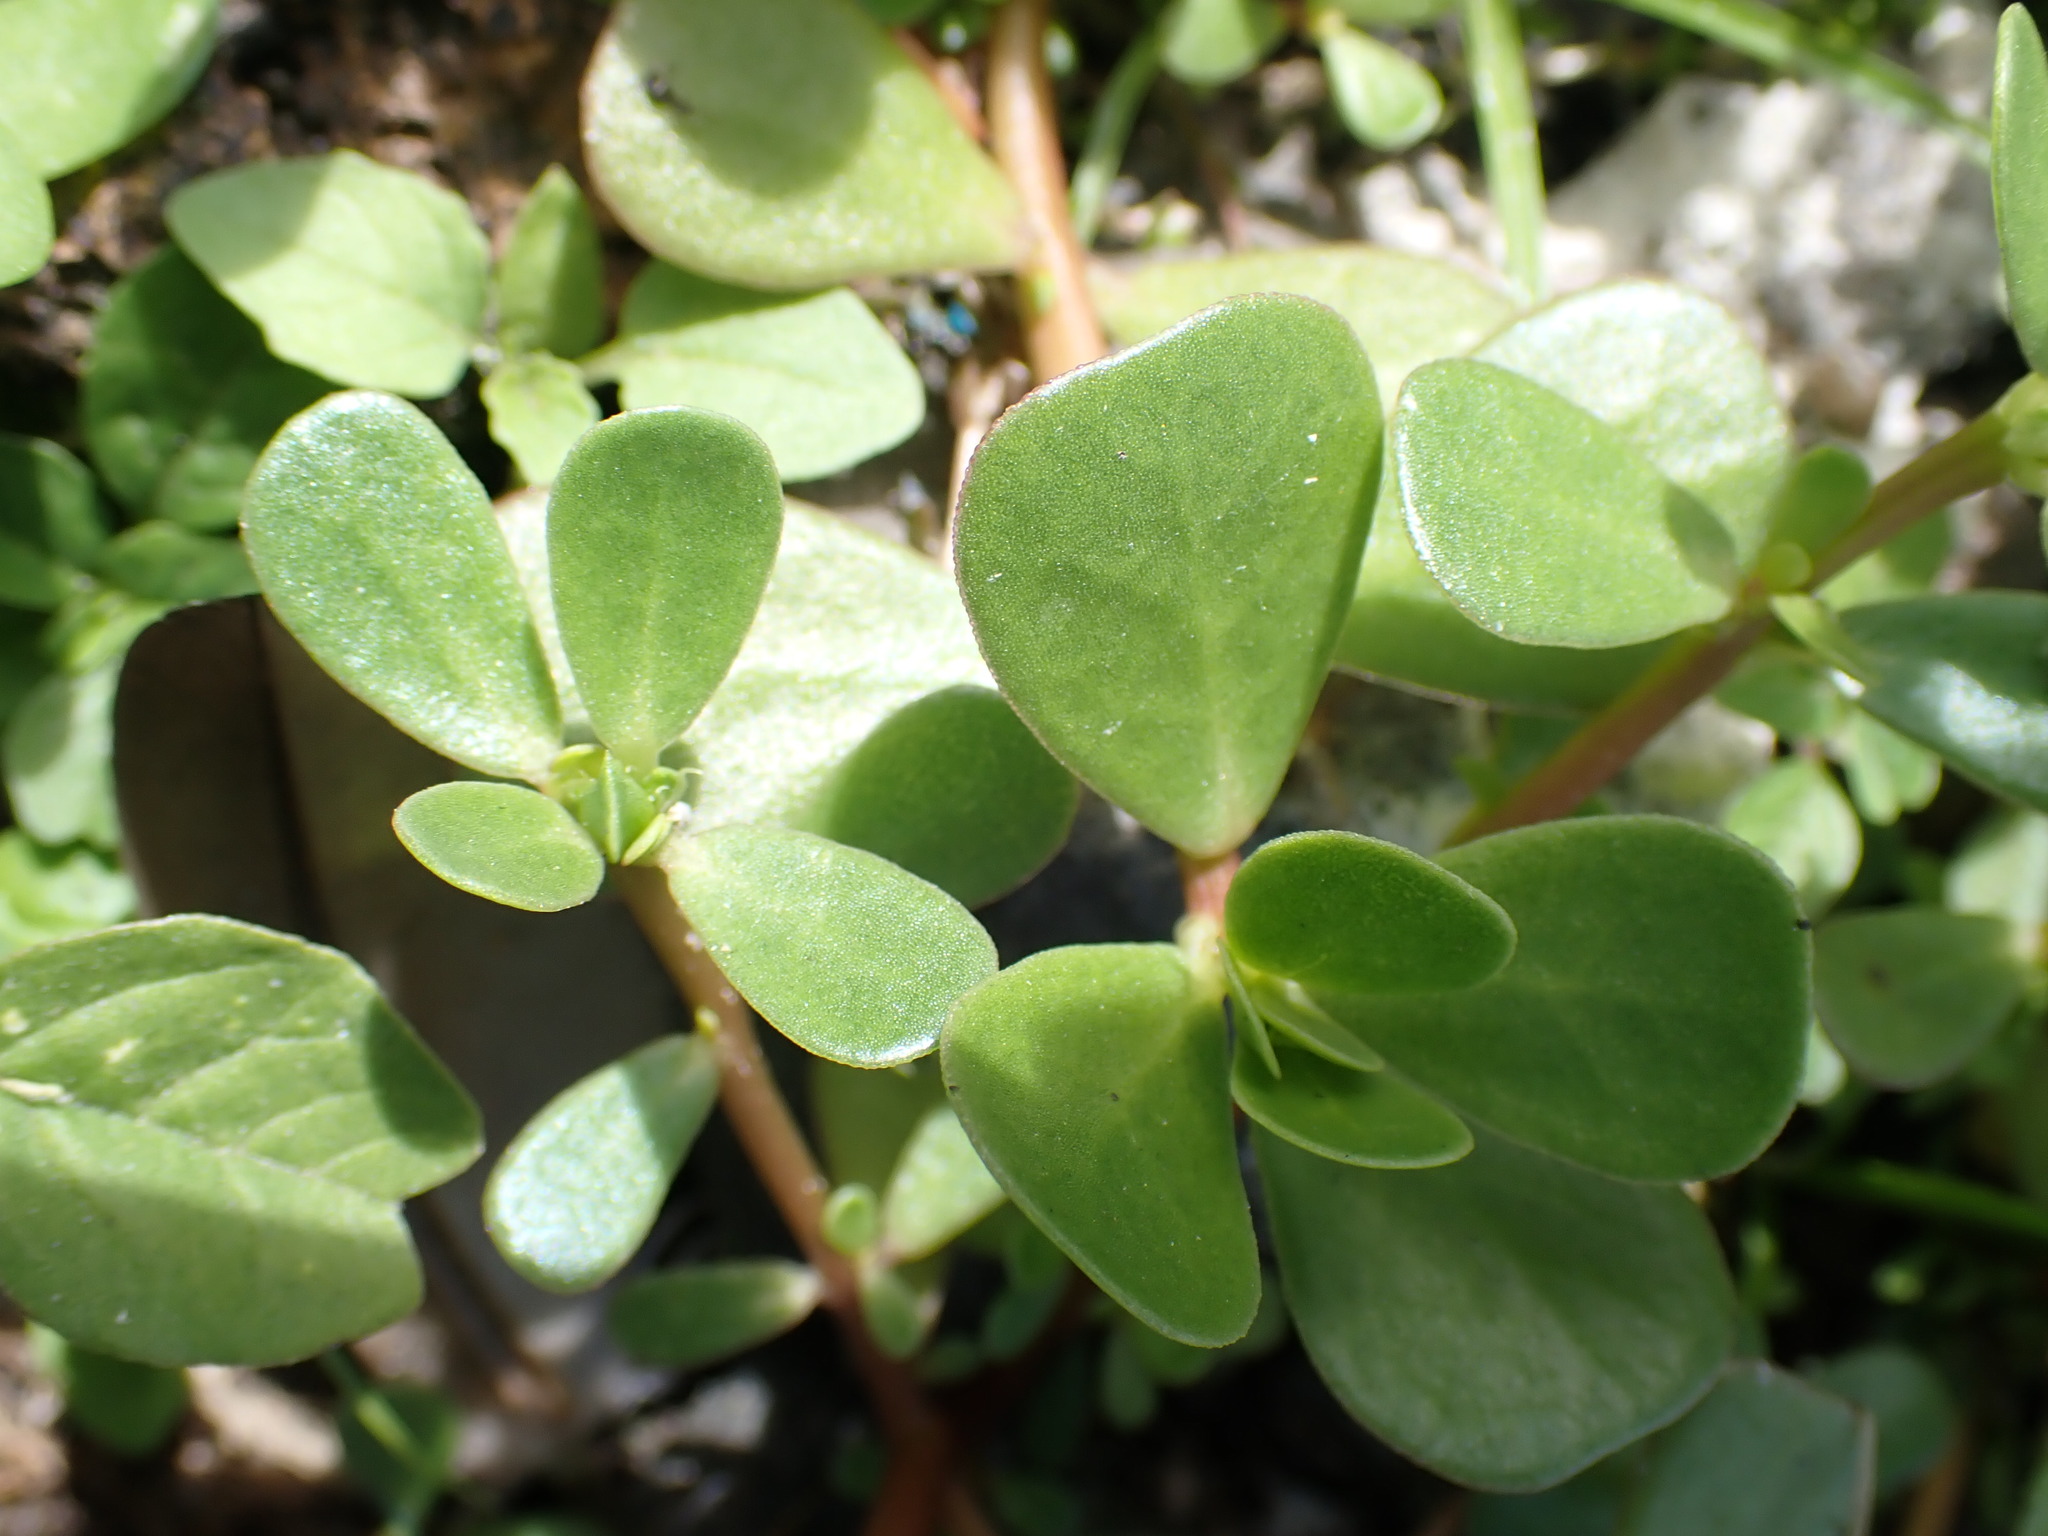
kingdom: Plantae
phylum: Tracheophyta
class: Magnoliopsida
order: Caryophyllales
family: Portulacaceae
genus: Portulaca
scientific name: Portulaca oleracea
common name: Common purslane
